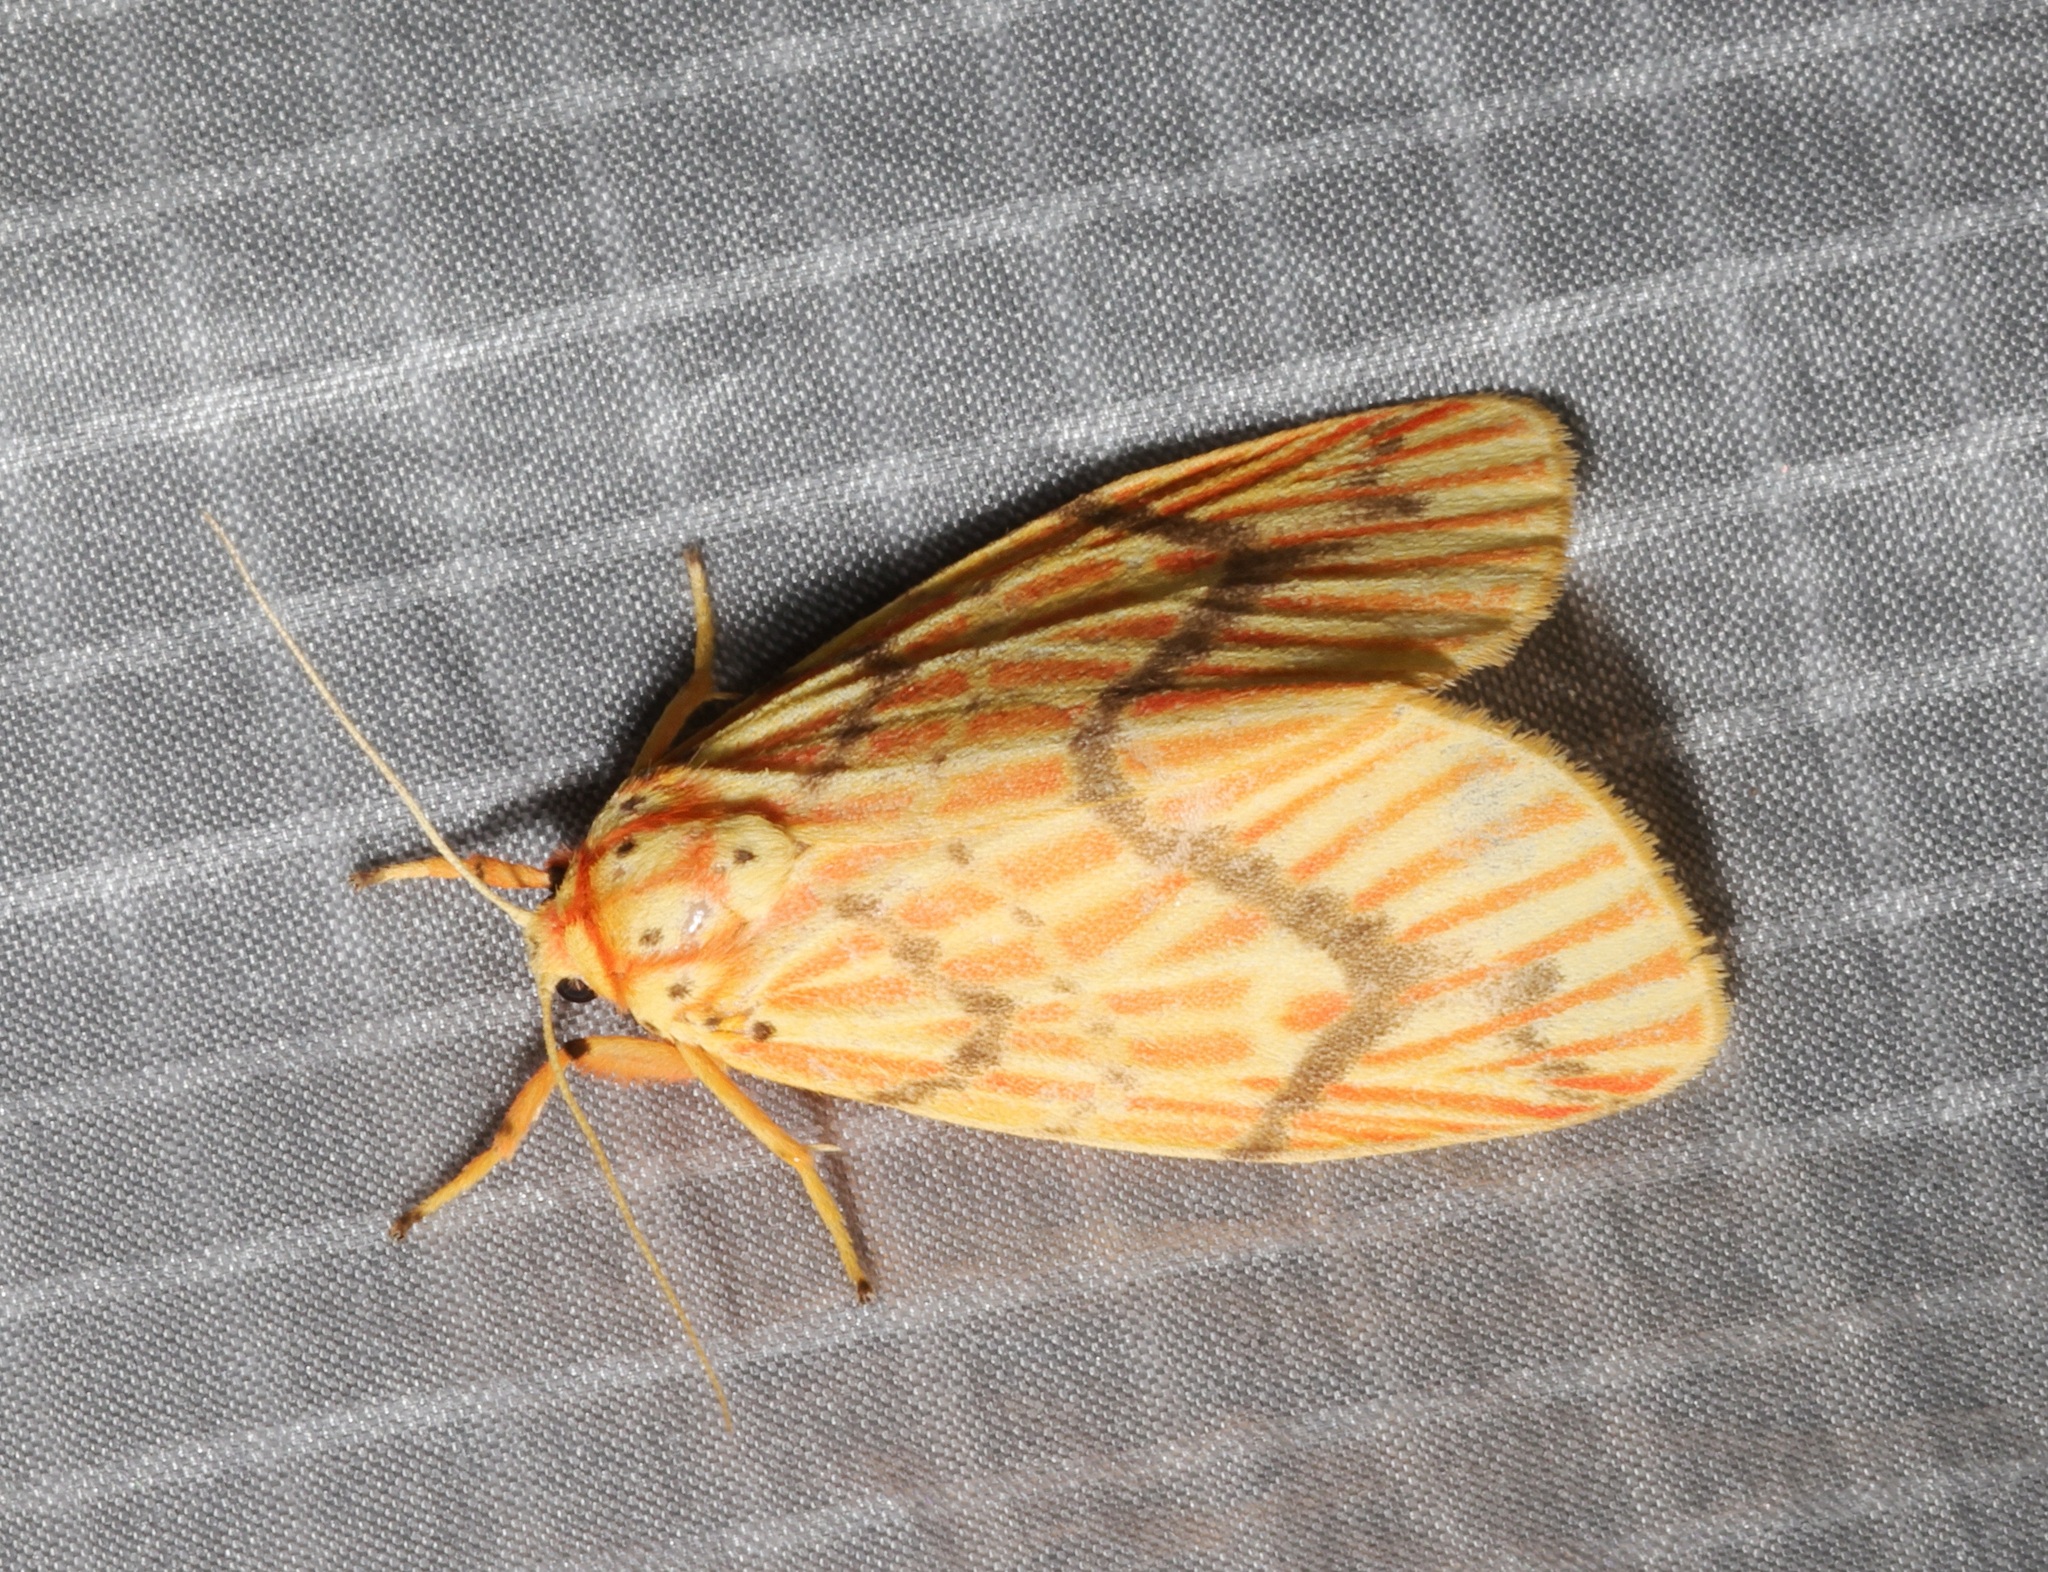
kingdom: Animalia
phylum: Arthropoda
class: Insecta
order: Lepidoptera
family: Erebidae
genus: Barsine
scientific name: Barsine striata
